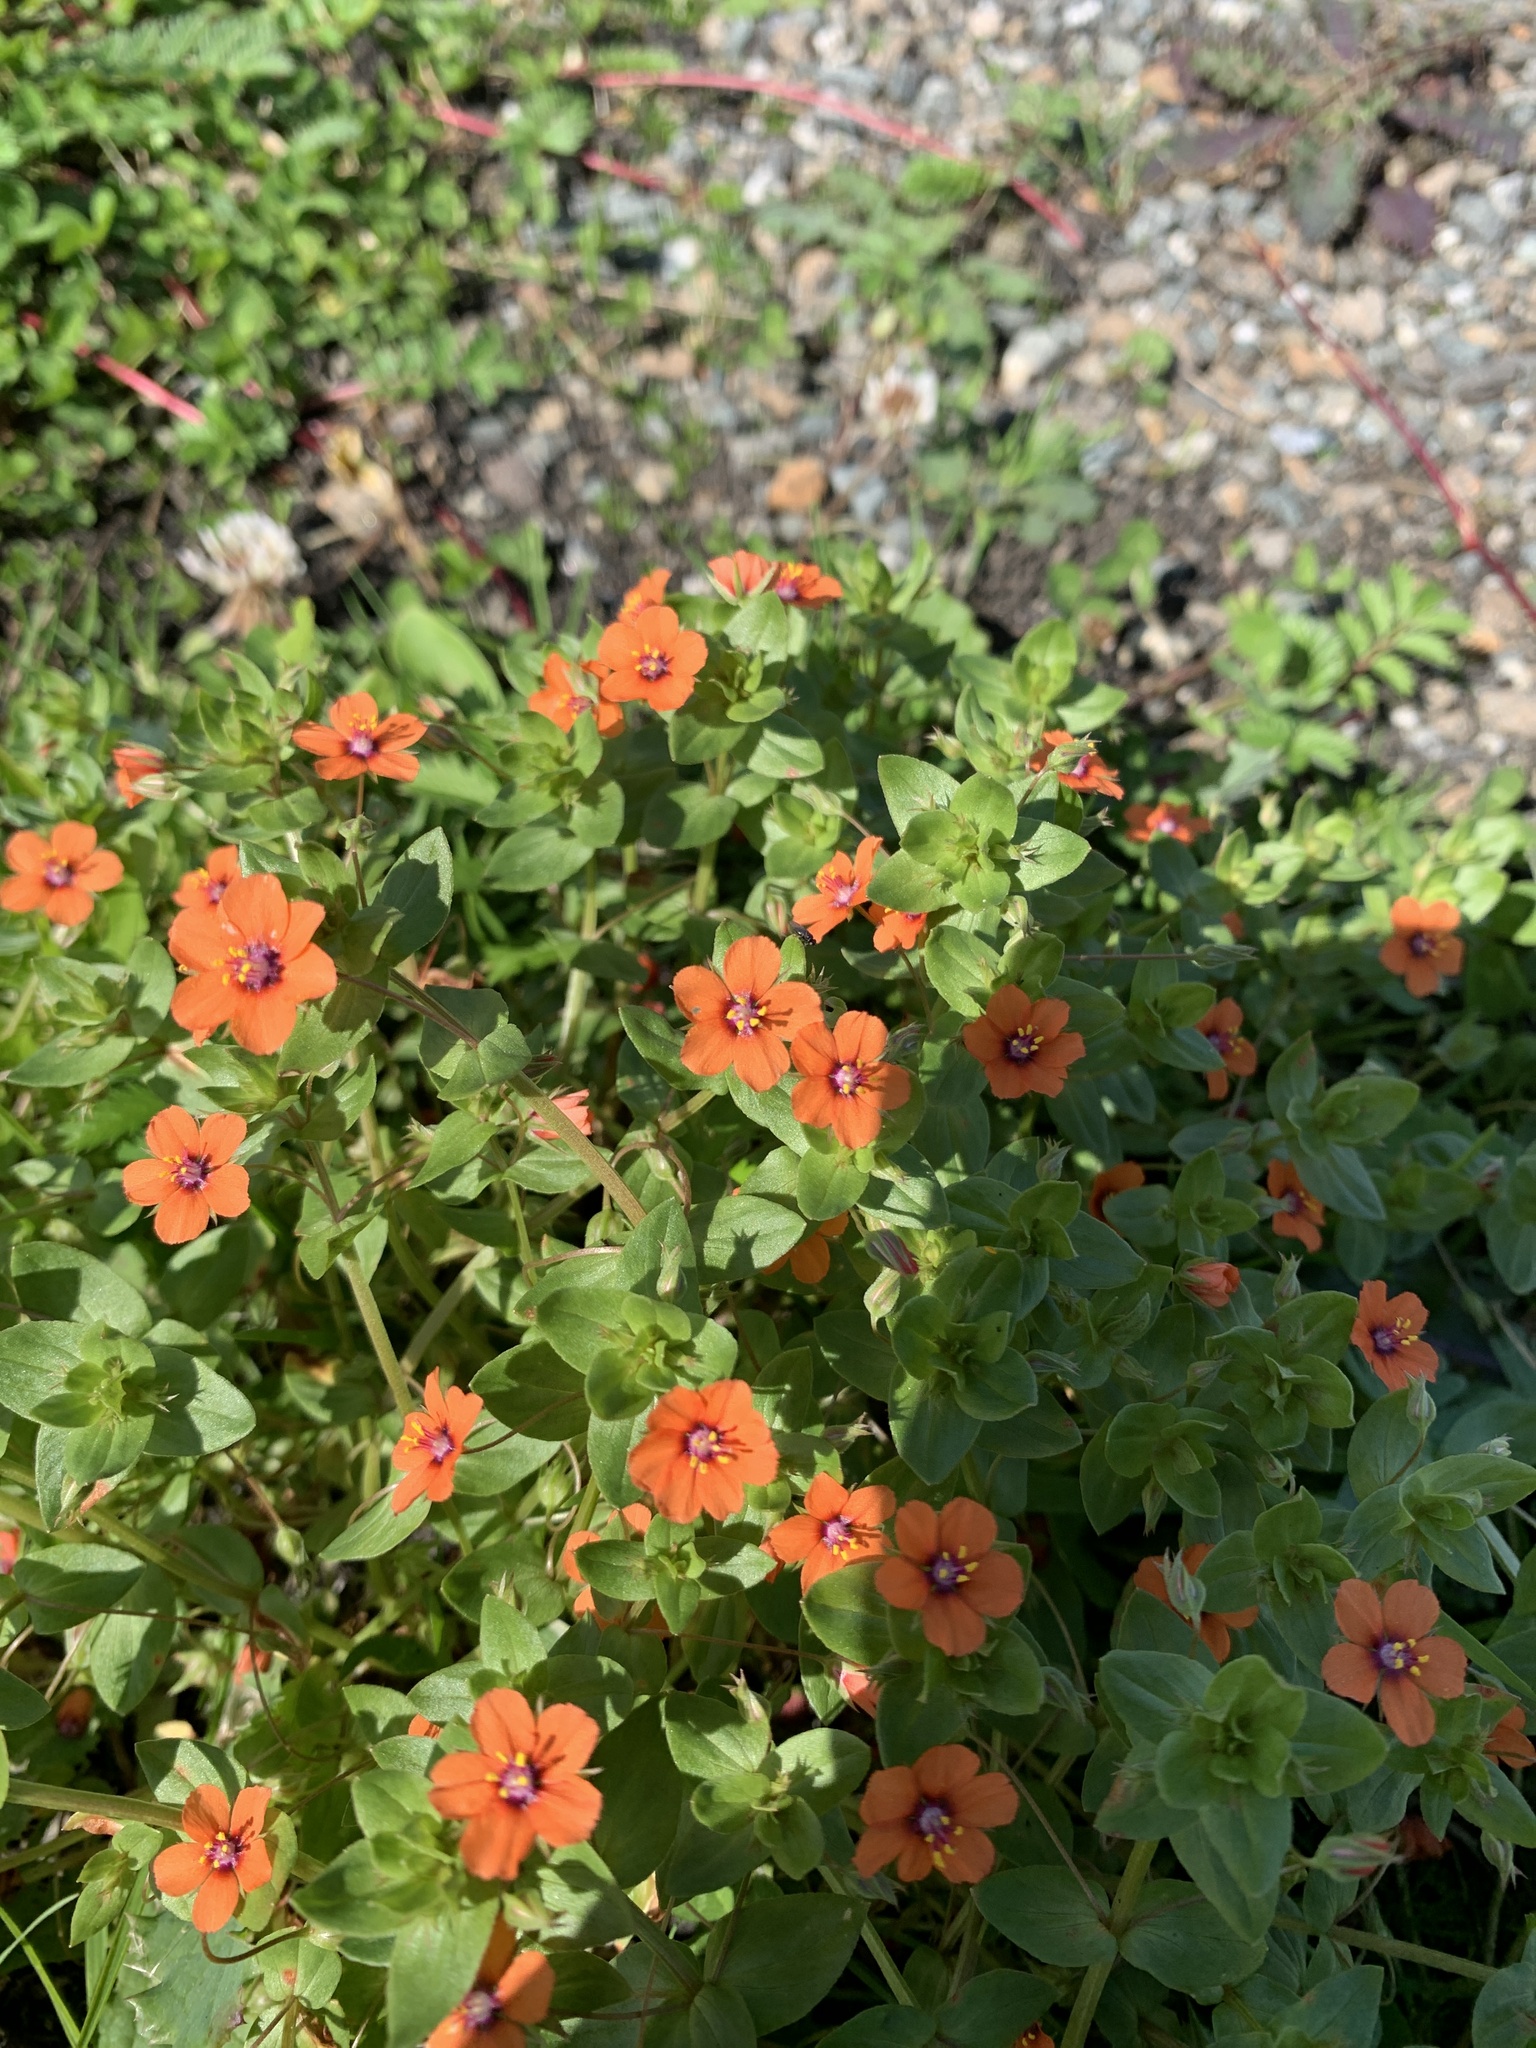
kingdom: Plantae
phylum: Tracheophyta
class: Magnoliopsida
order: Ericales
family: Primulaceae
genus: Lysimachia
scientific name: Lysimachia arvensis
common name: Scarlet pimpernel
